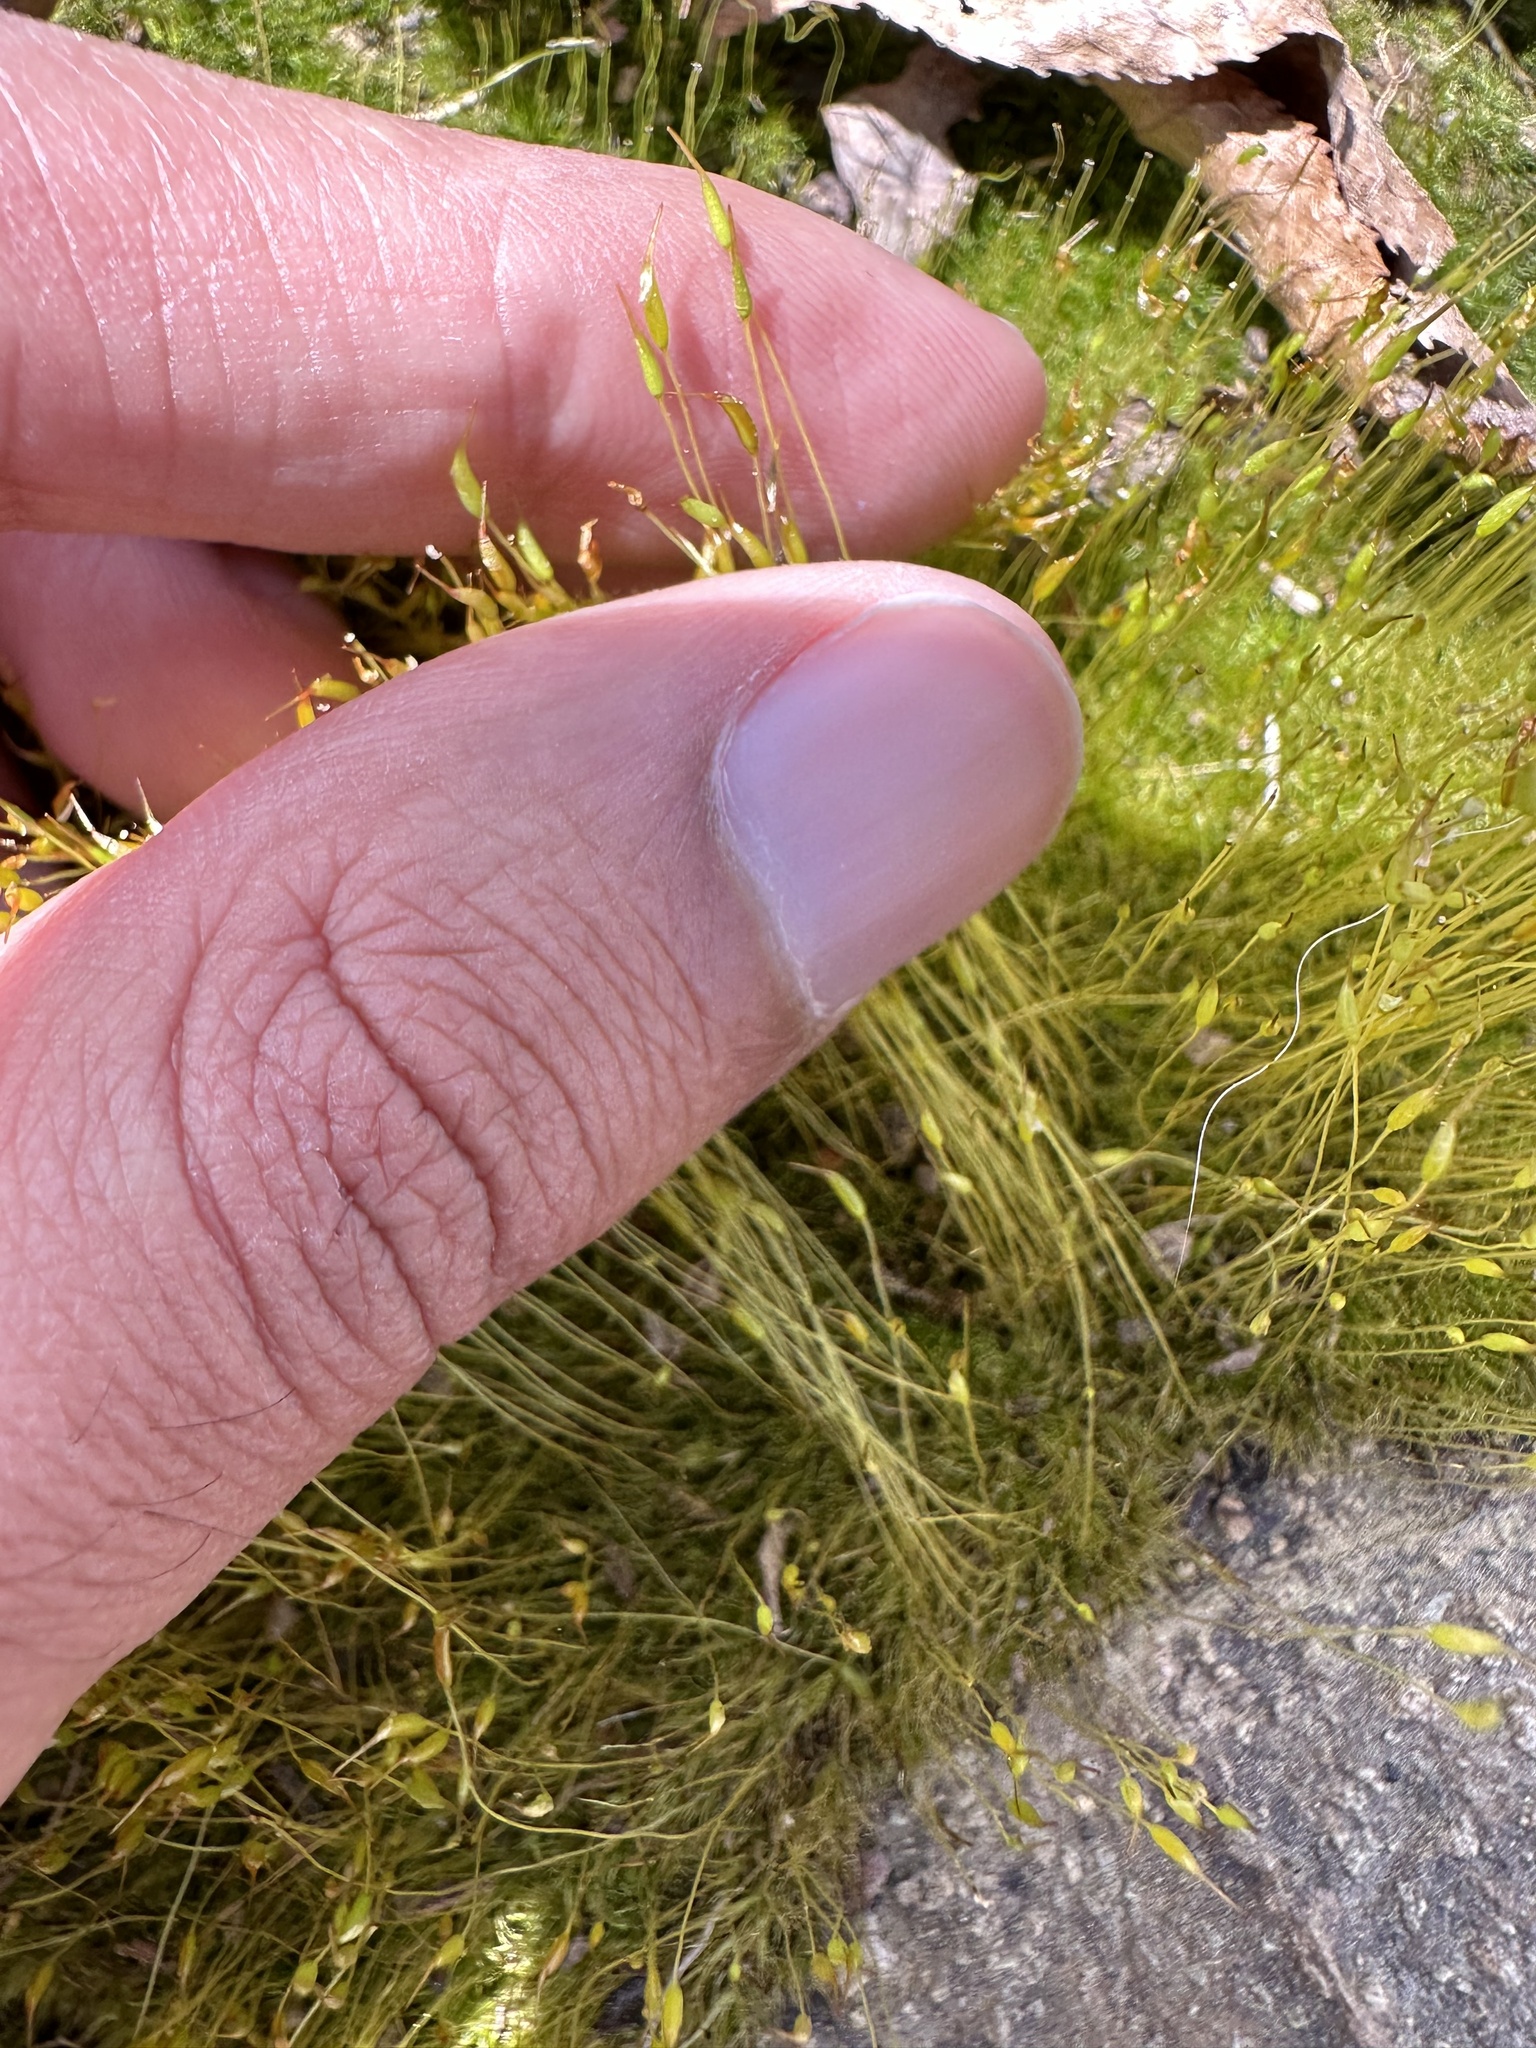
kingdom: Plantae
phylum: Bryophyta
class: Bryopsida
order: Dicranales
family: Ditrichaceae
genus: Ditrichum
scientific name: Ditrichum pallidum
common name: Pale cow-hair moss
